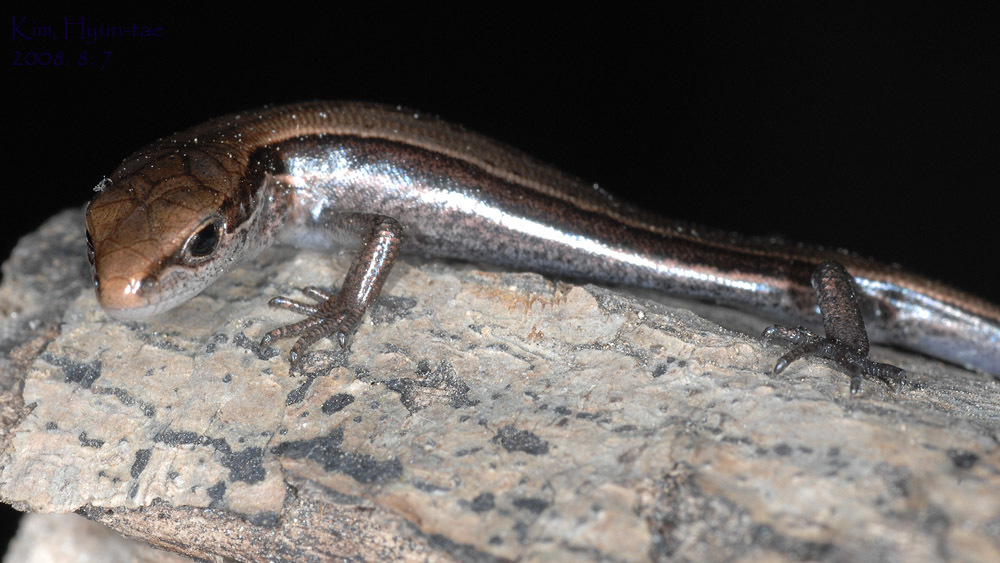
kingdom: Animalia
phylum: Chordata
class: Squamata
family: Scincidae
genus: Scincella
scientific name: Scincella huanrenensis
